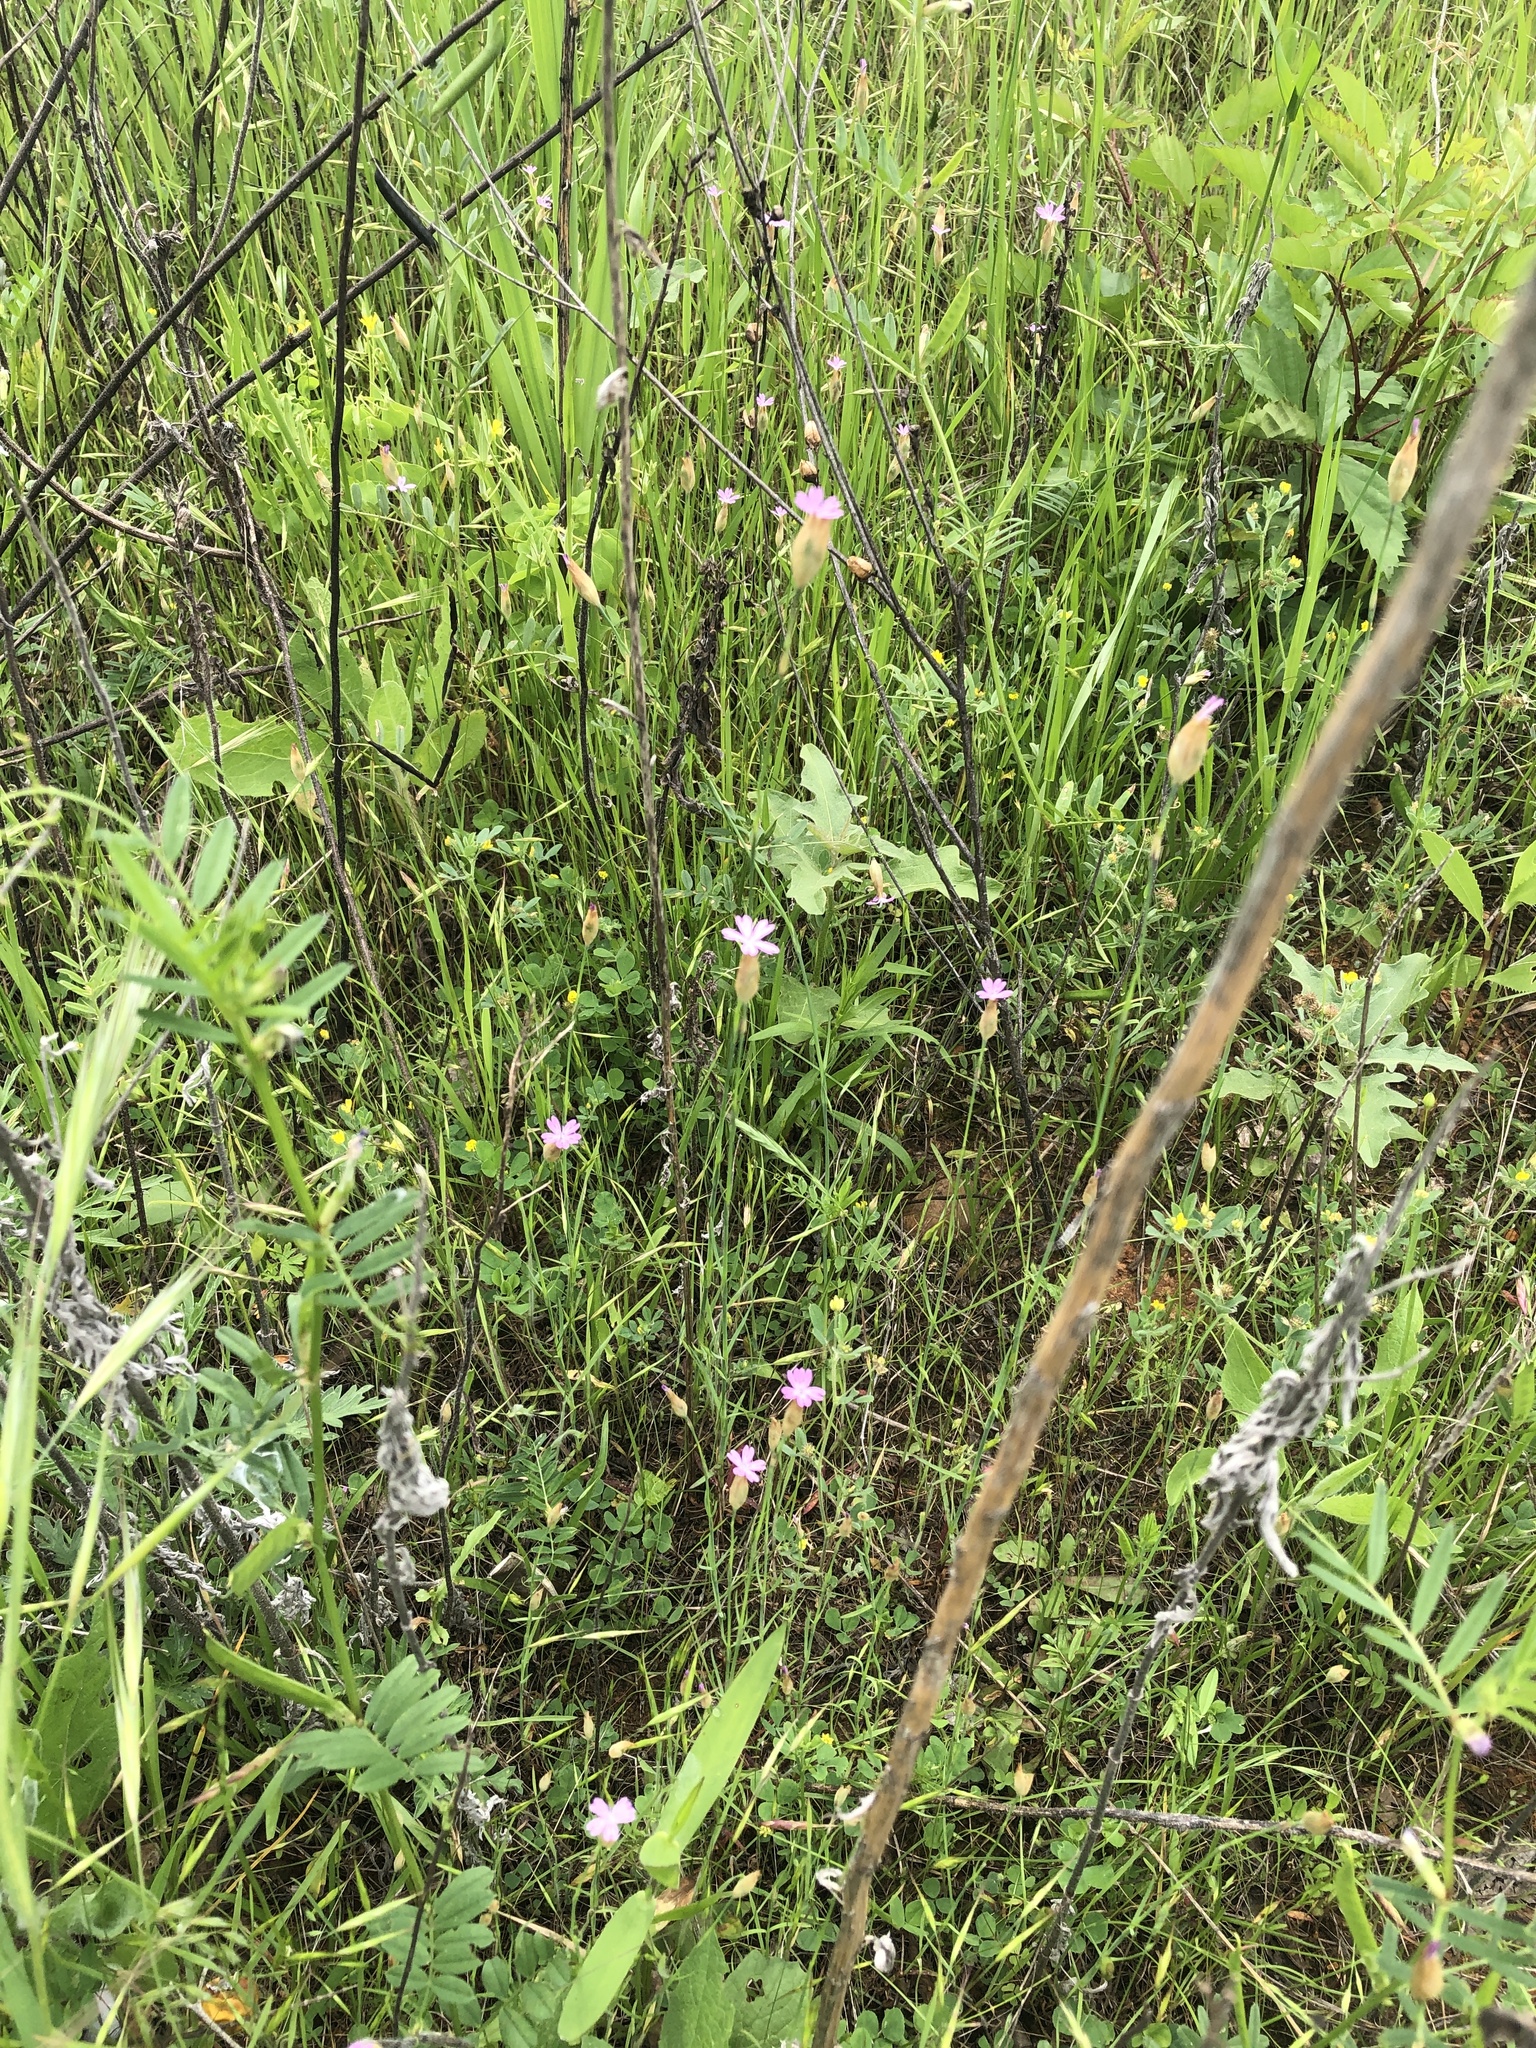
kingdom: Plantae
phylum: Tracheophyta
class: Magnoliopsida
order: Caryophyllales
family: Caryophyllaceae
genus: Petrorhagia
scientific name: Petrorhagia dubia
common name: Hairypink
